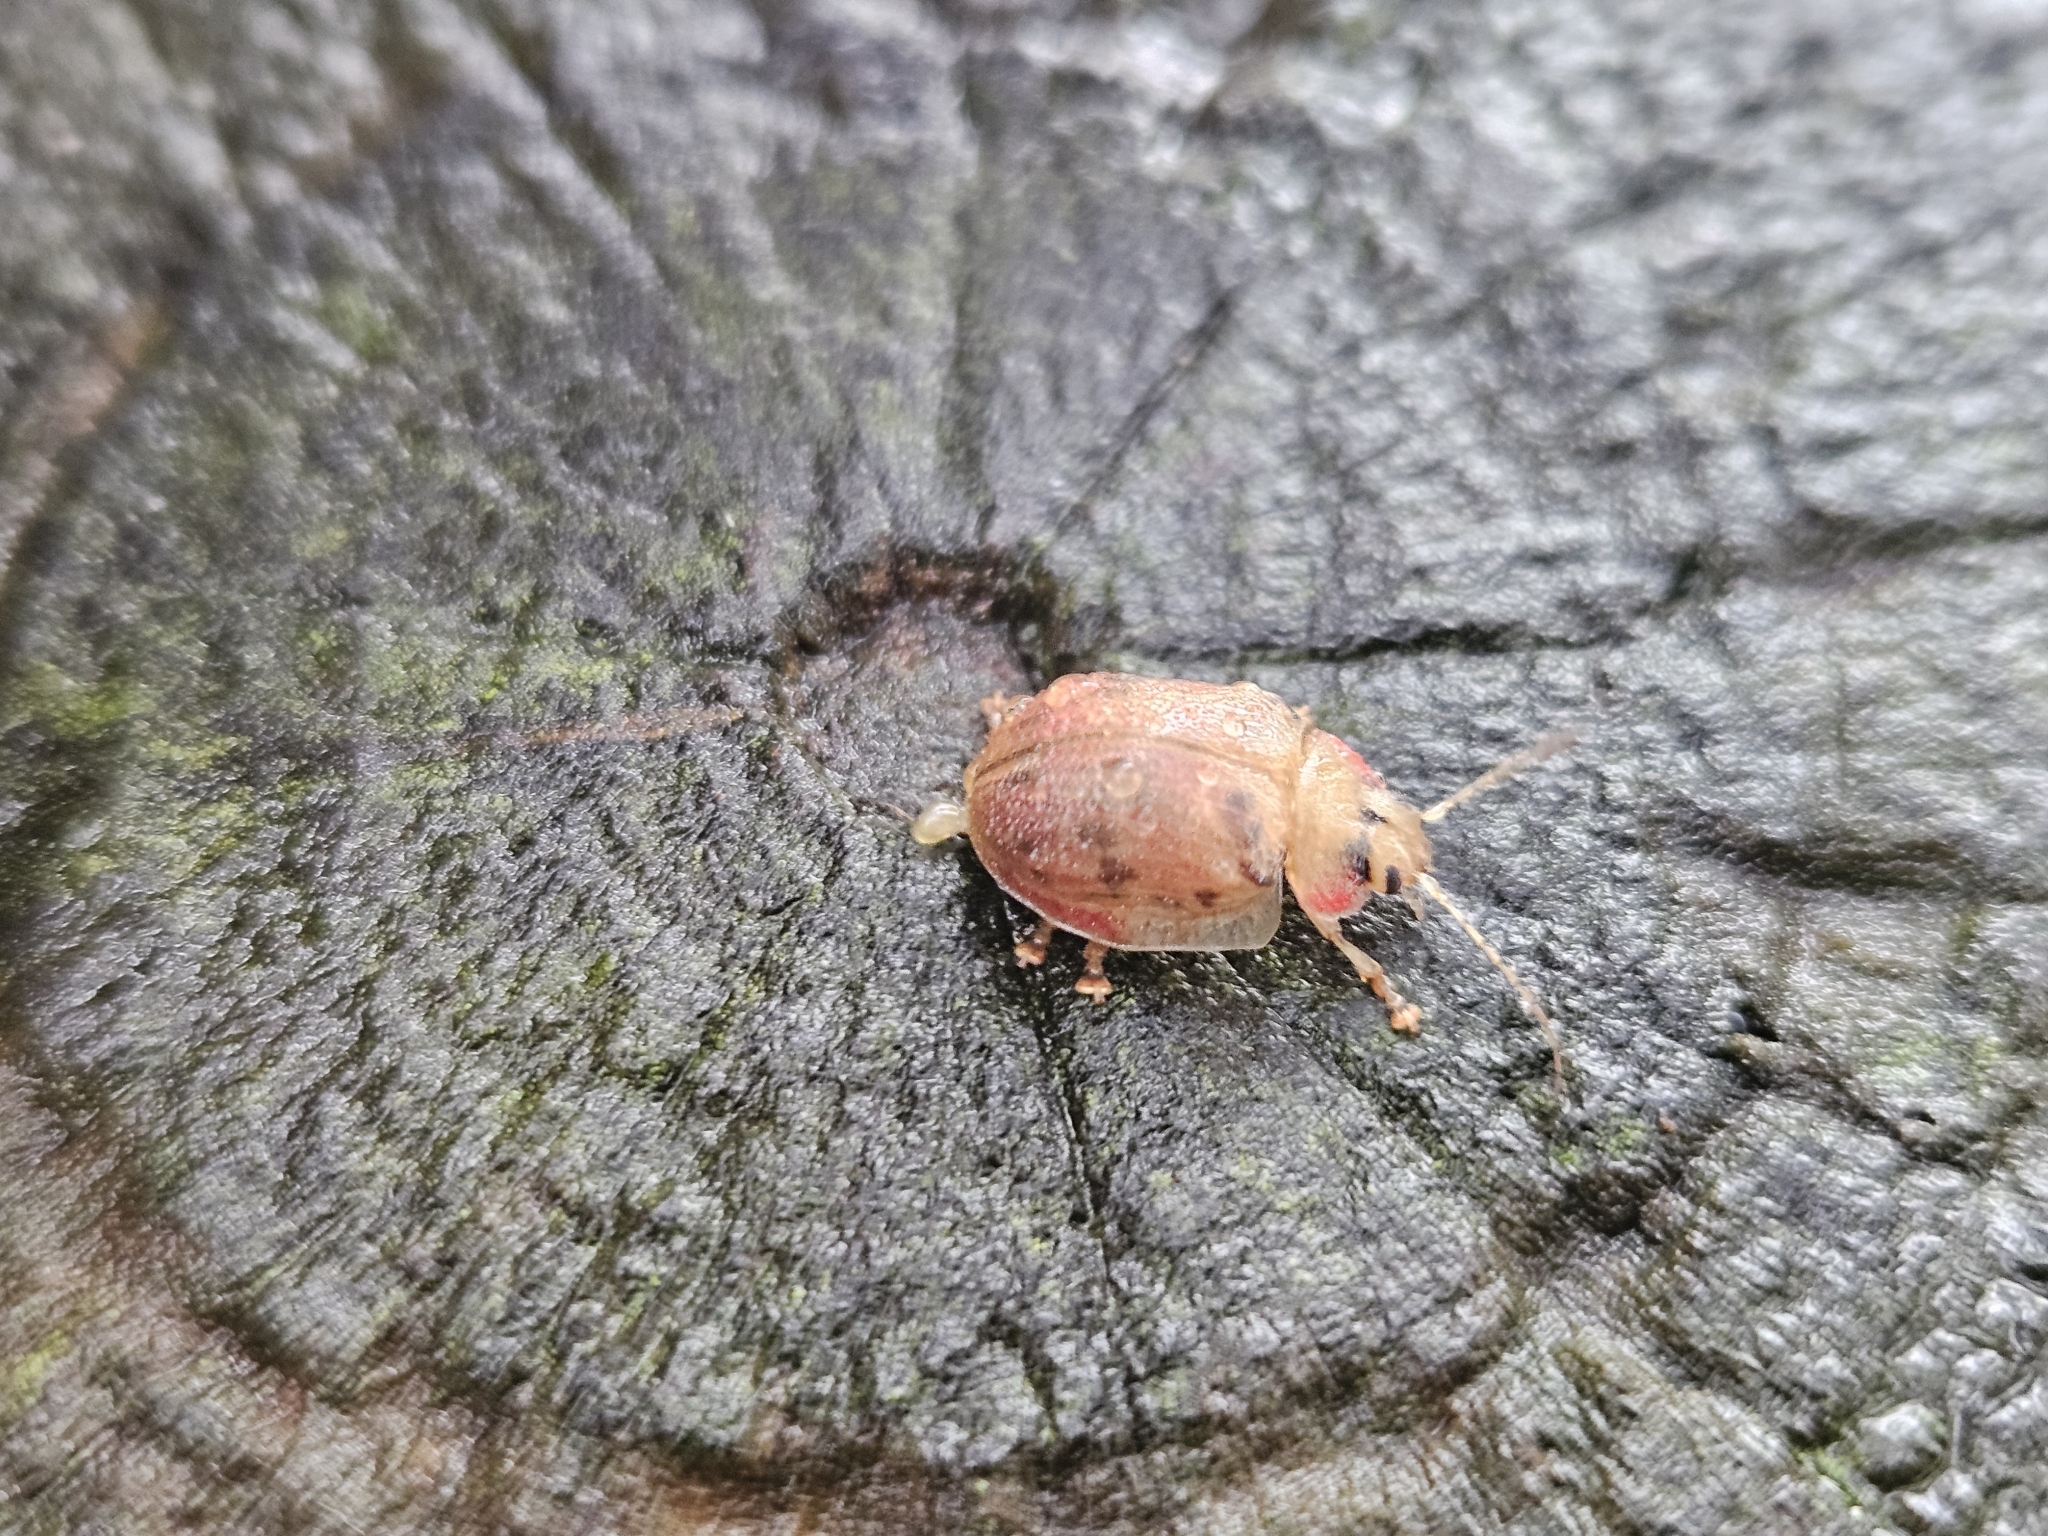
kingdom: Animalia
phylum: Arthropoda
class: Insecta
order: Coleoptera
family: Chrysomelidae
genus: Paropsis
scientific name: Paropsis charybdis
